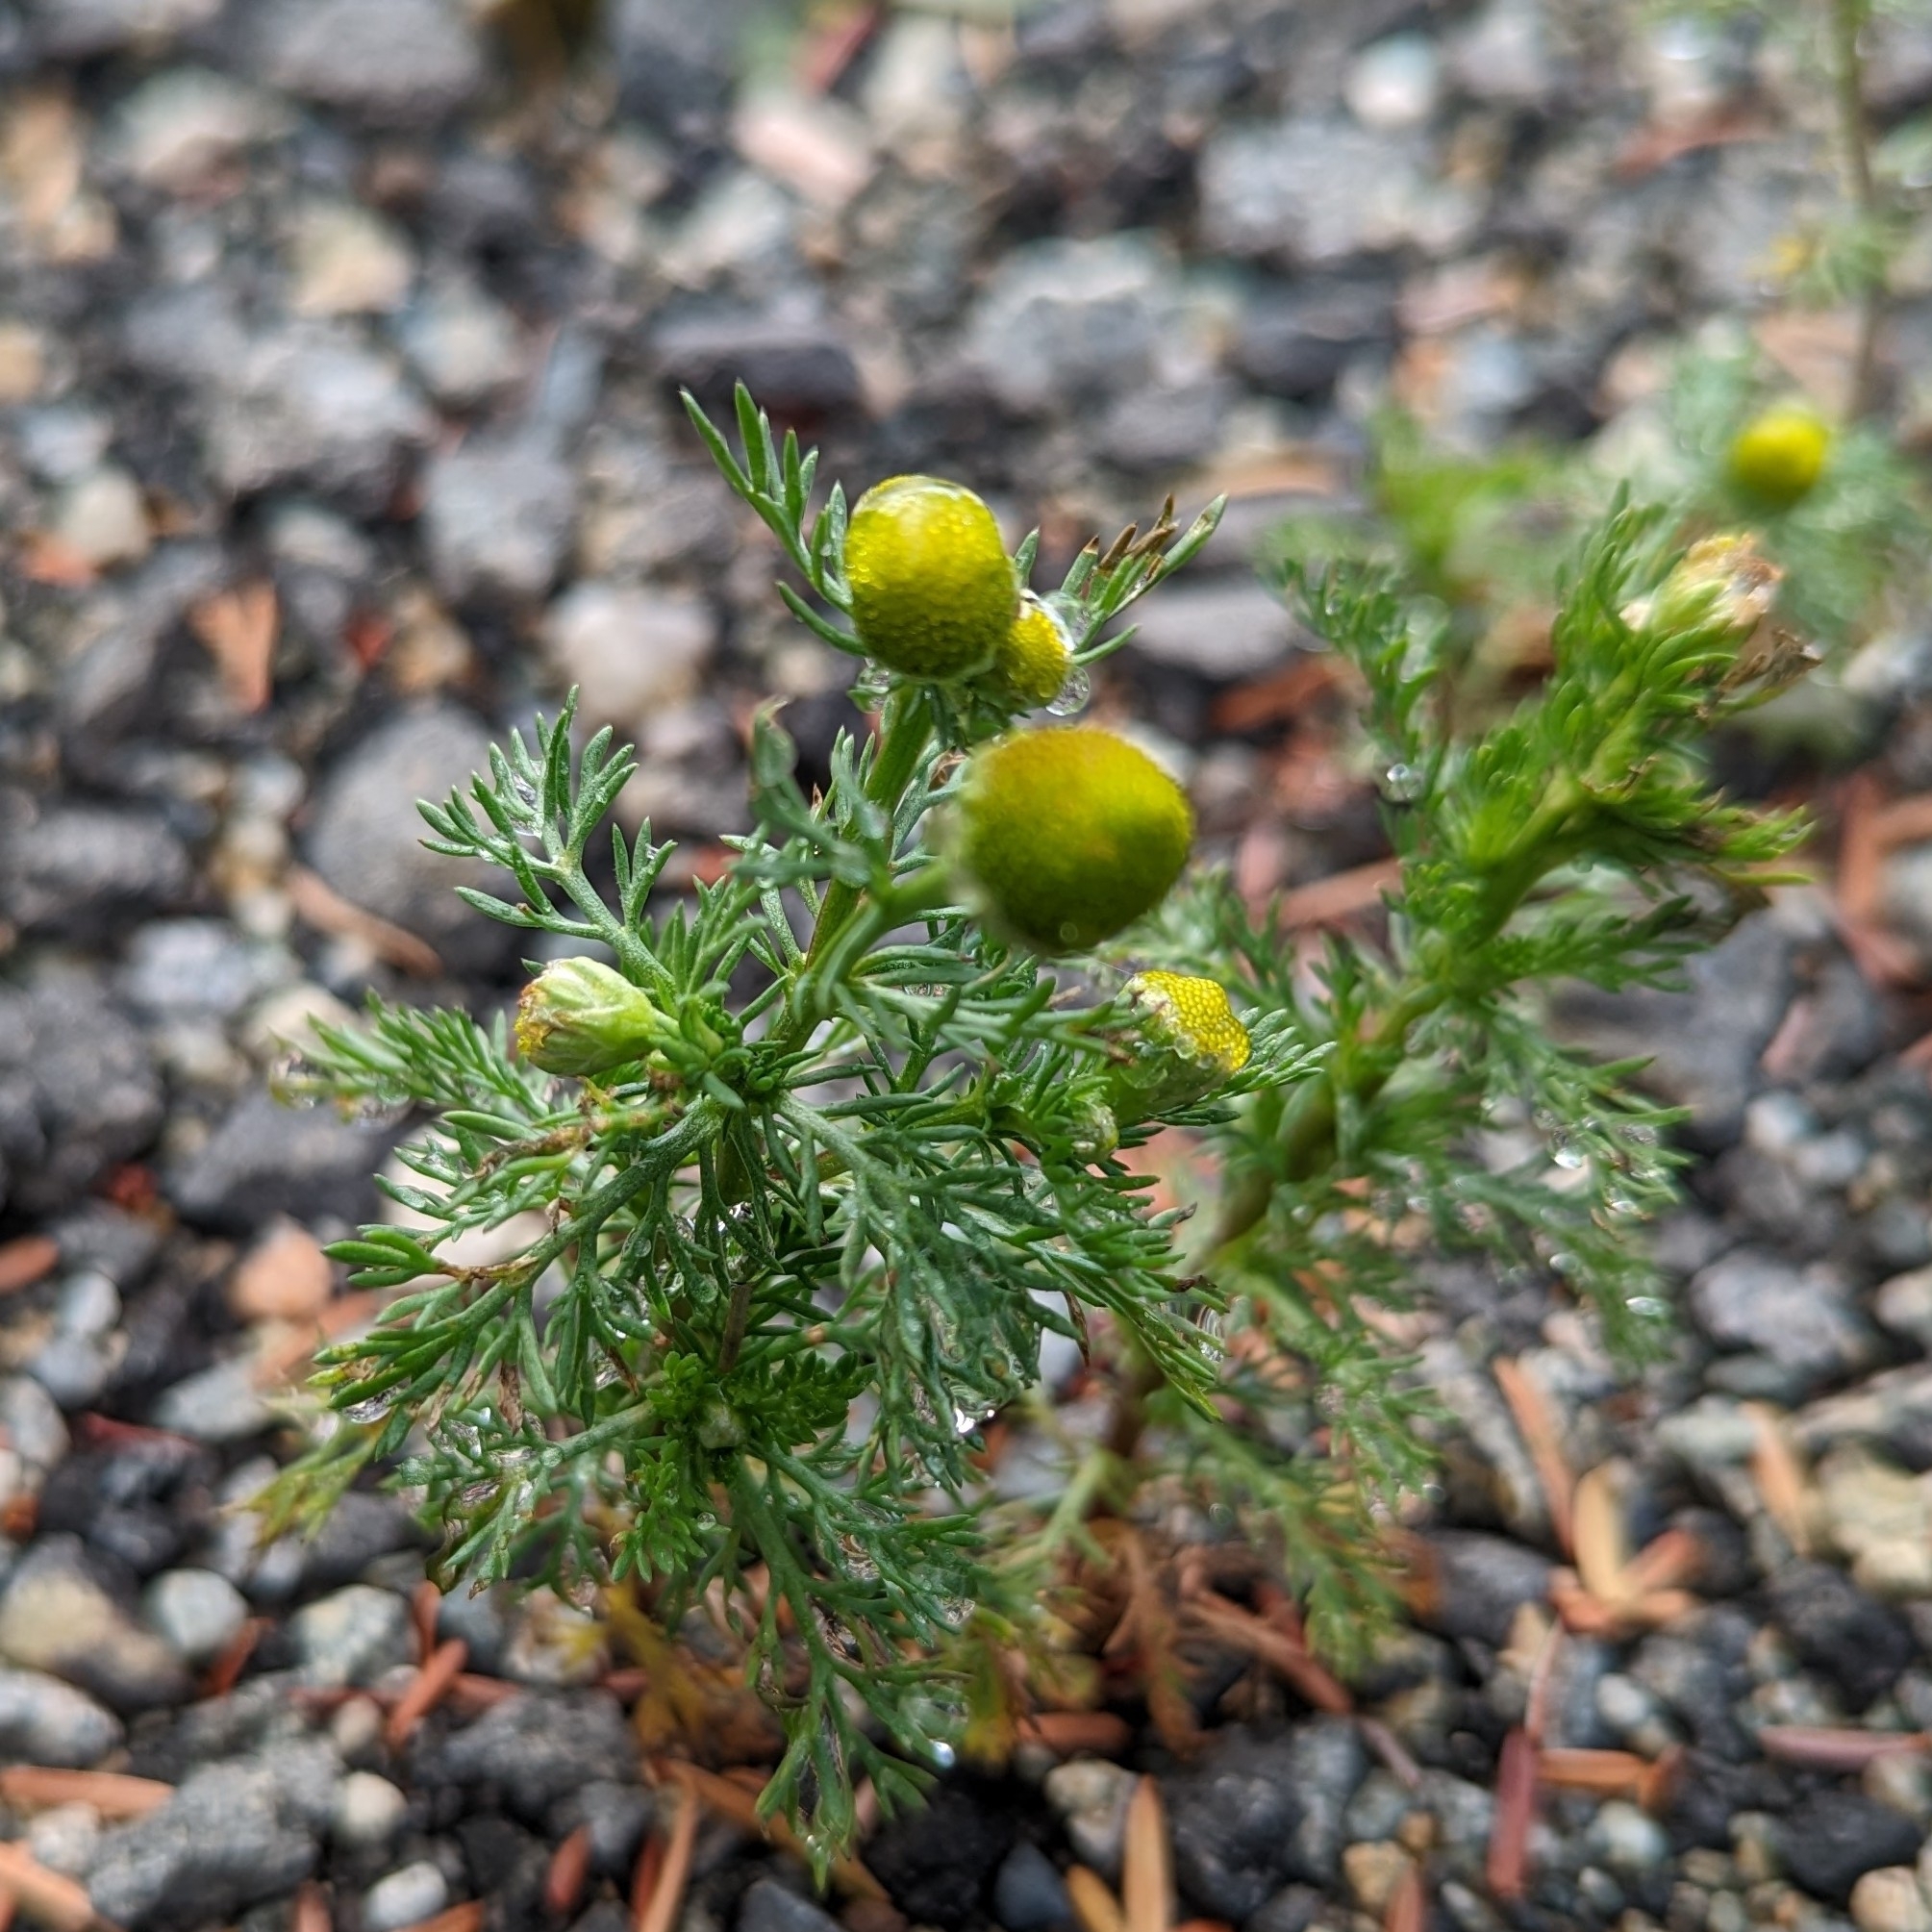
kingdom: Plantae
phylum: Tracheophyta
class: Magnoliopsida
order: Asterales
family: Asteraceae
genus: Matricaria
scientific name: Matricaria discoidea
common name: Disc mayweed
